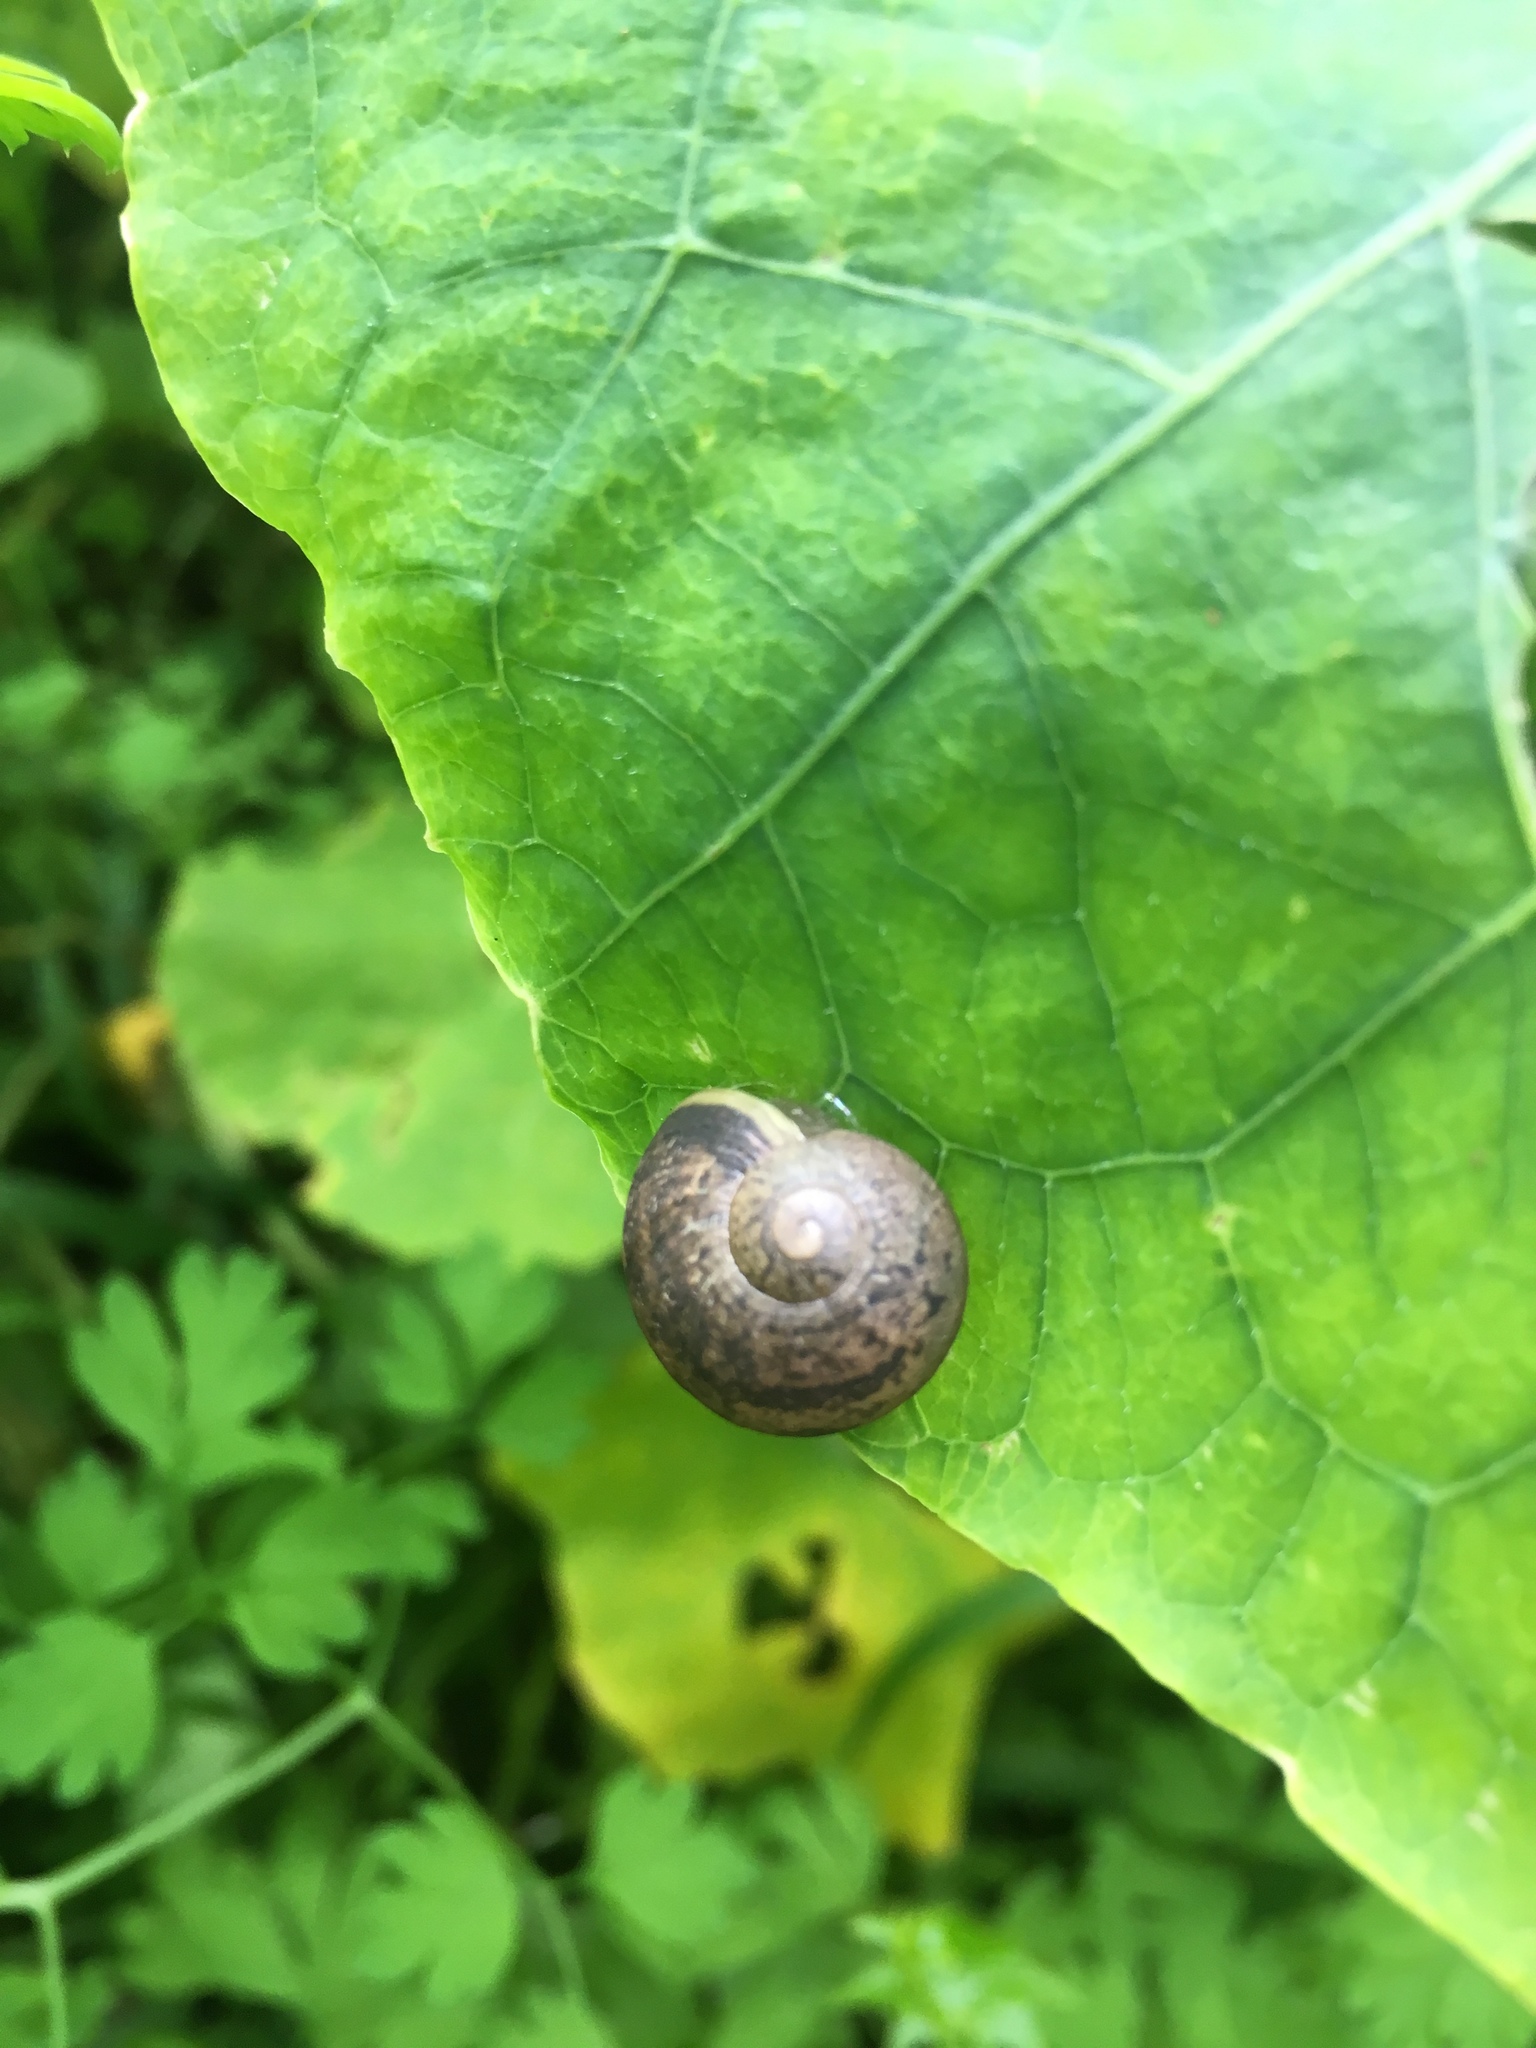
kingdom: Animalia
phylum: Mollusca
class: Gastropoda
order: Stylommatophora
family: Helicidae
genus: Cornu
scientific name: Cornu aspersum
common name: Brown garden snail
